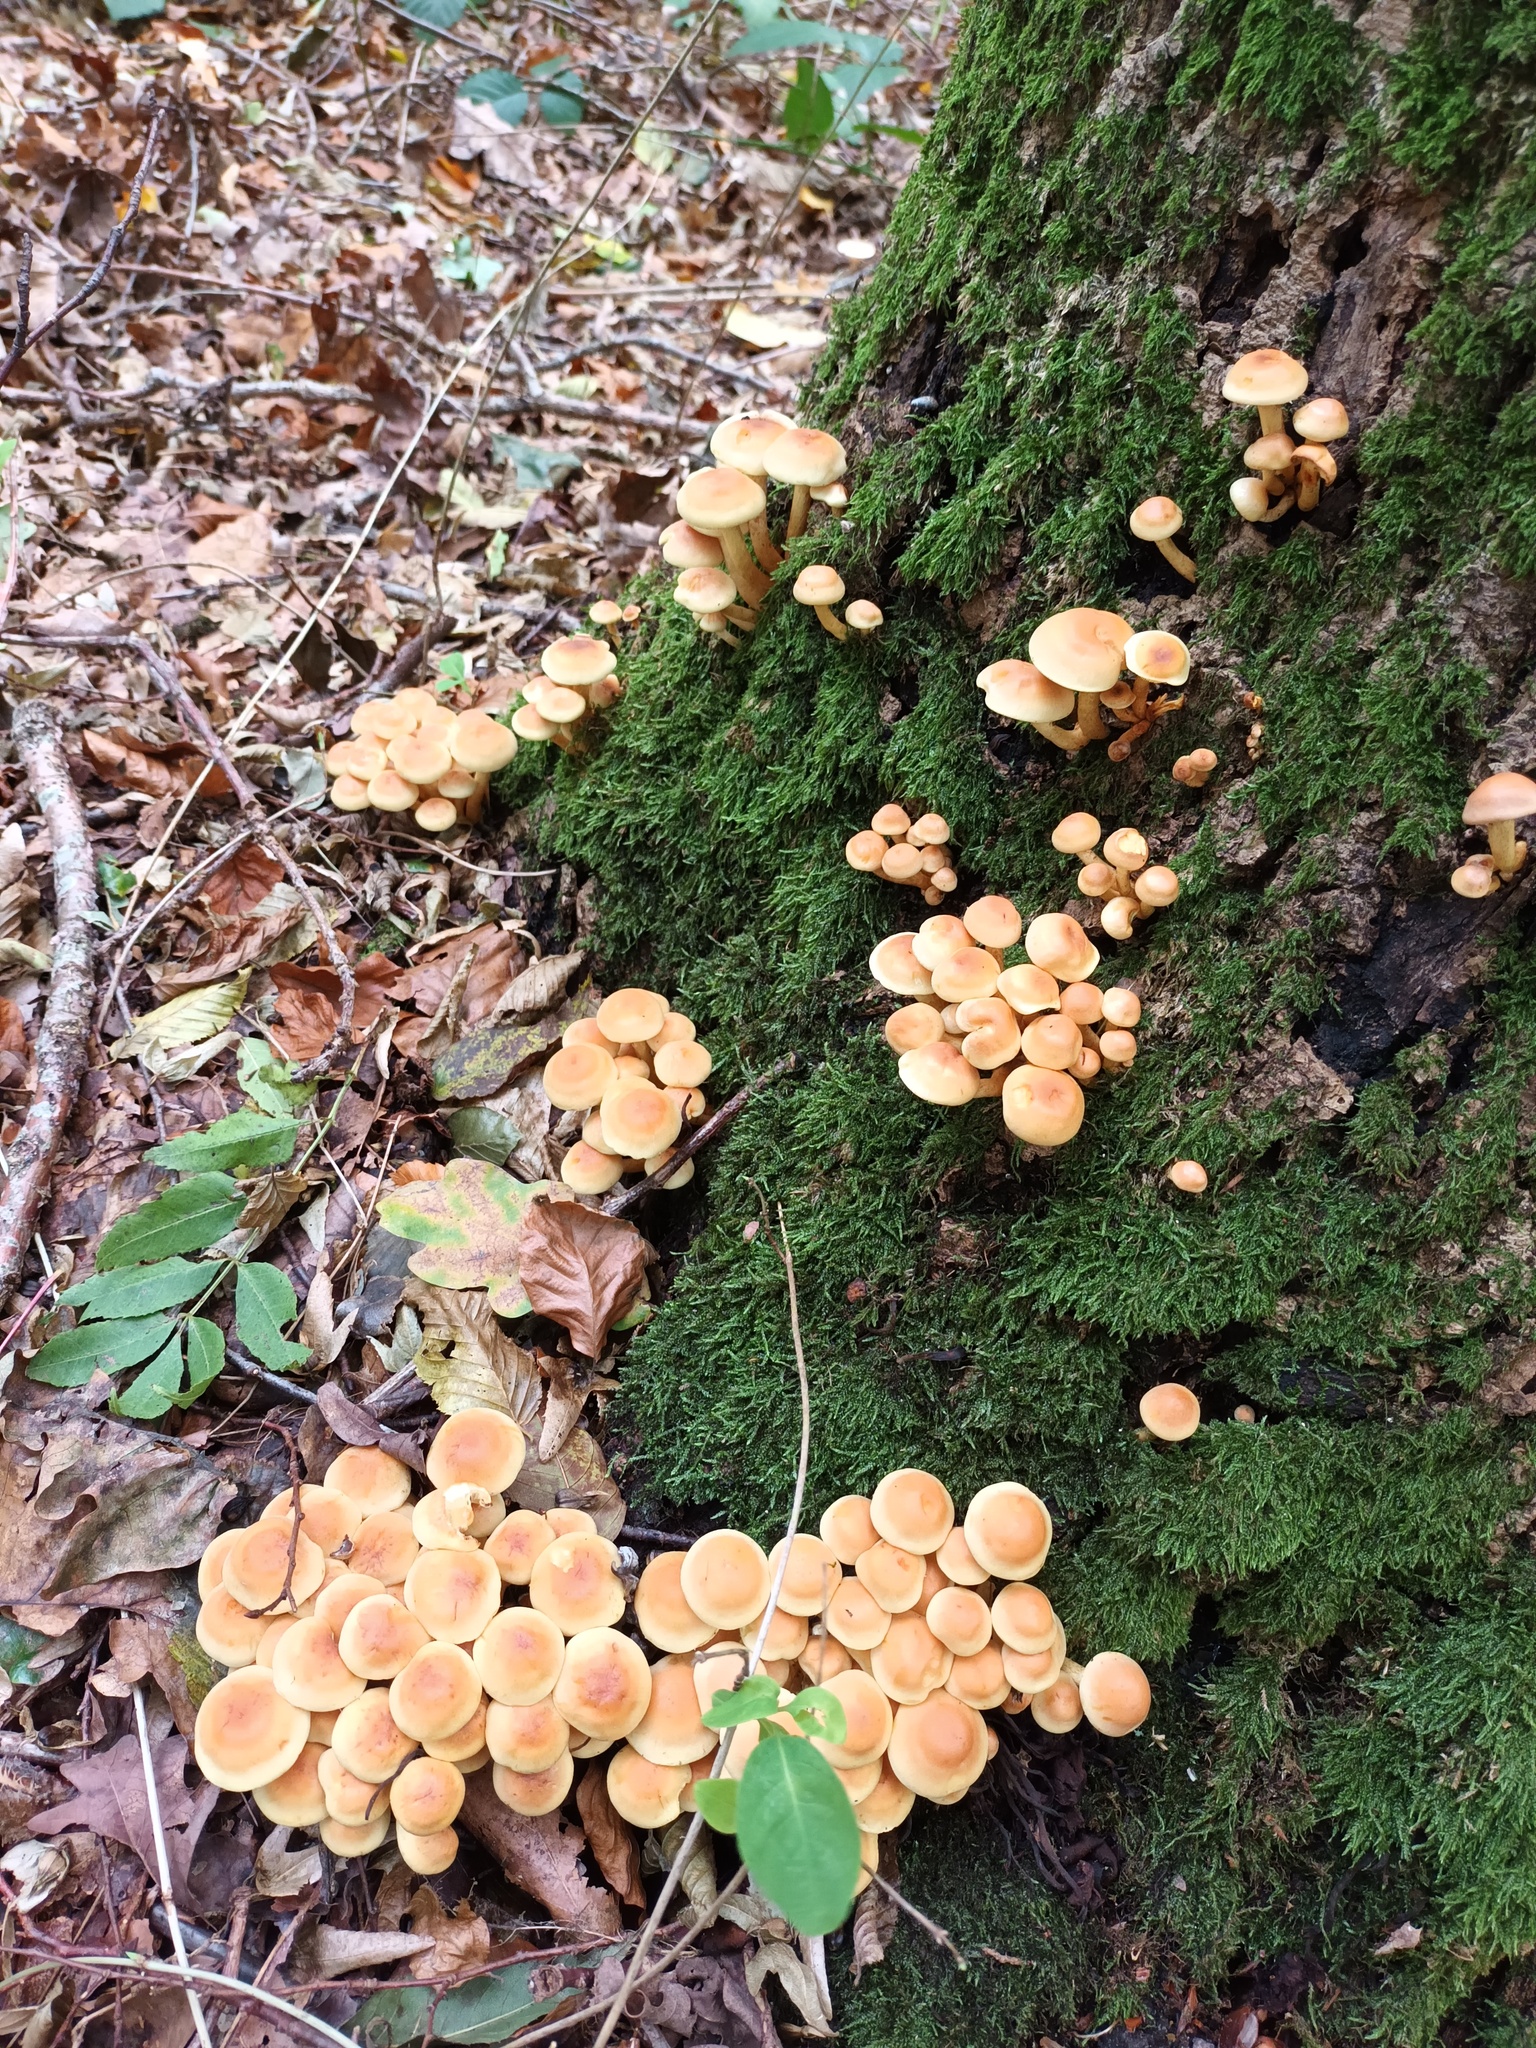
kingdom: Fungi
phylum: Basidiomycota
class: Agaricomycetes
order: Agaricales
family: Strophariaceae
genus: Hypholoma
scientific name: Hypholoma fasciculare
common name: Sulphur tuft
